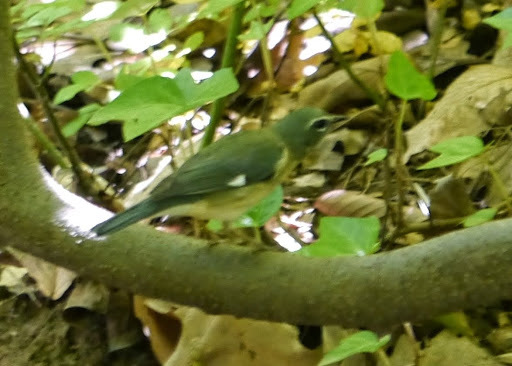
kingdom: Animalia
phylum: Chordata
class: Aves
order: Passeriformes
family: Parulidae
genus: Setophaga
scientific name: Setophaga caerulescens
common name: Black-throated blue warbler
